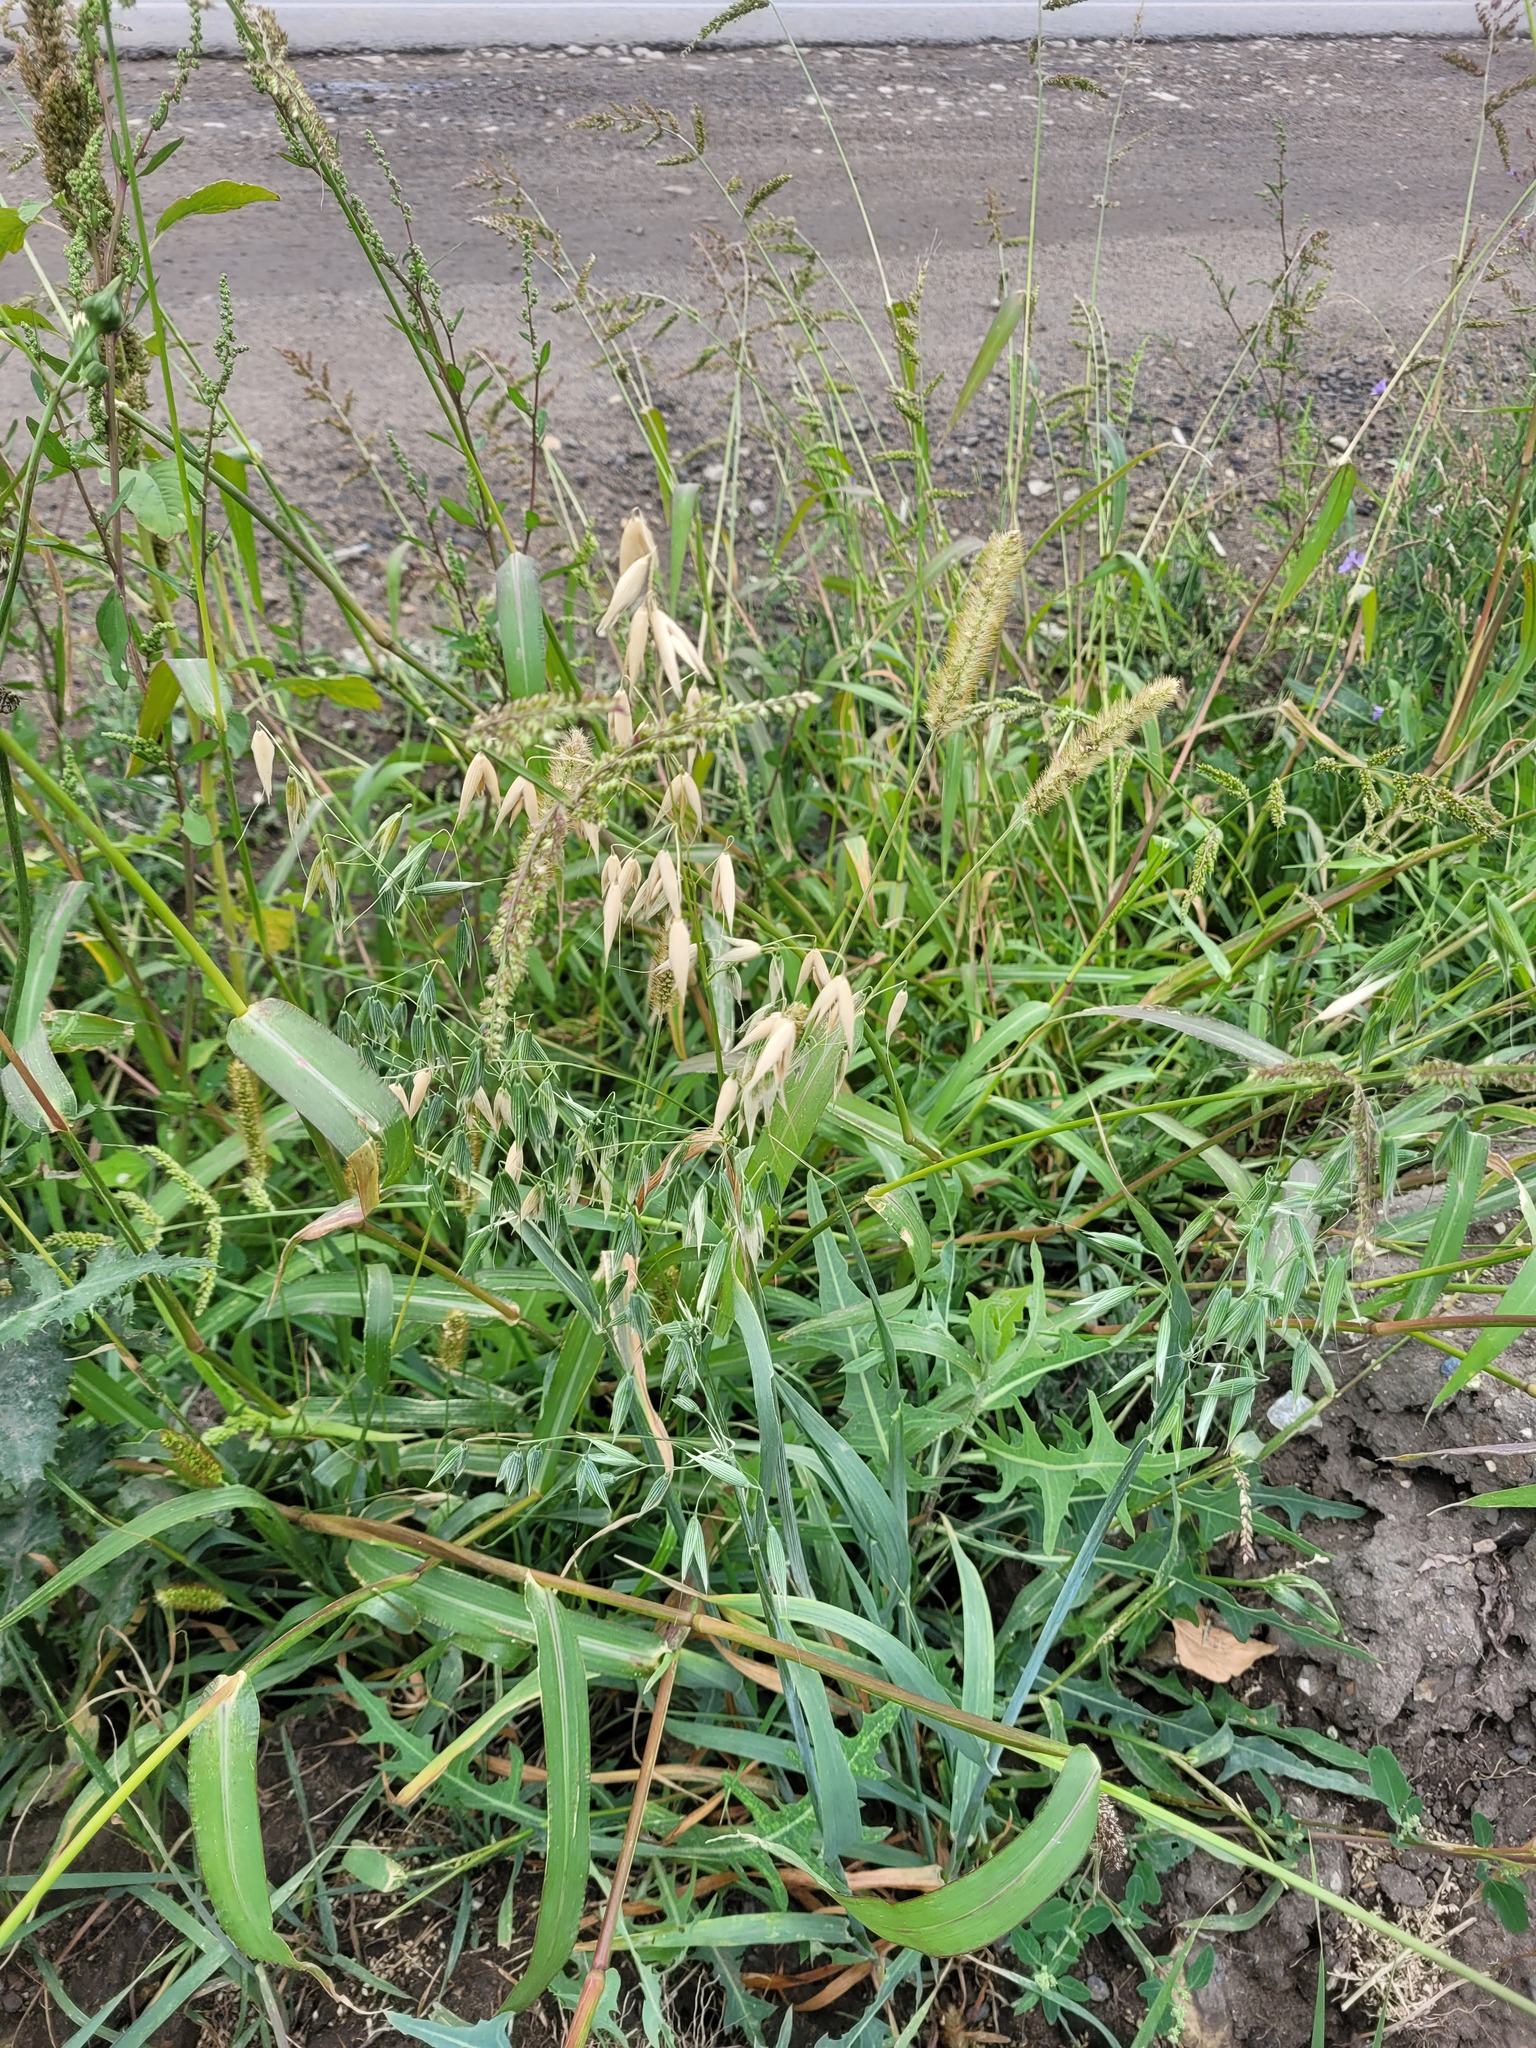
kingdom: Plantae
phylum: Tracheophyta
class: Liliopsida
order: Poales
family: Poaceae
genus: Avena
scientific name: Avena sativa
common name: Oat
